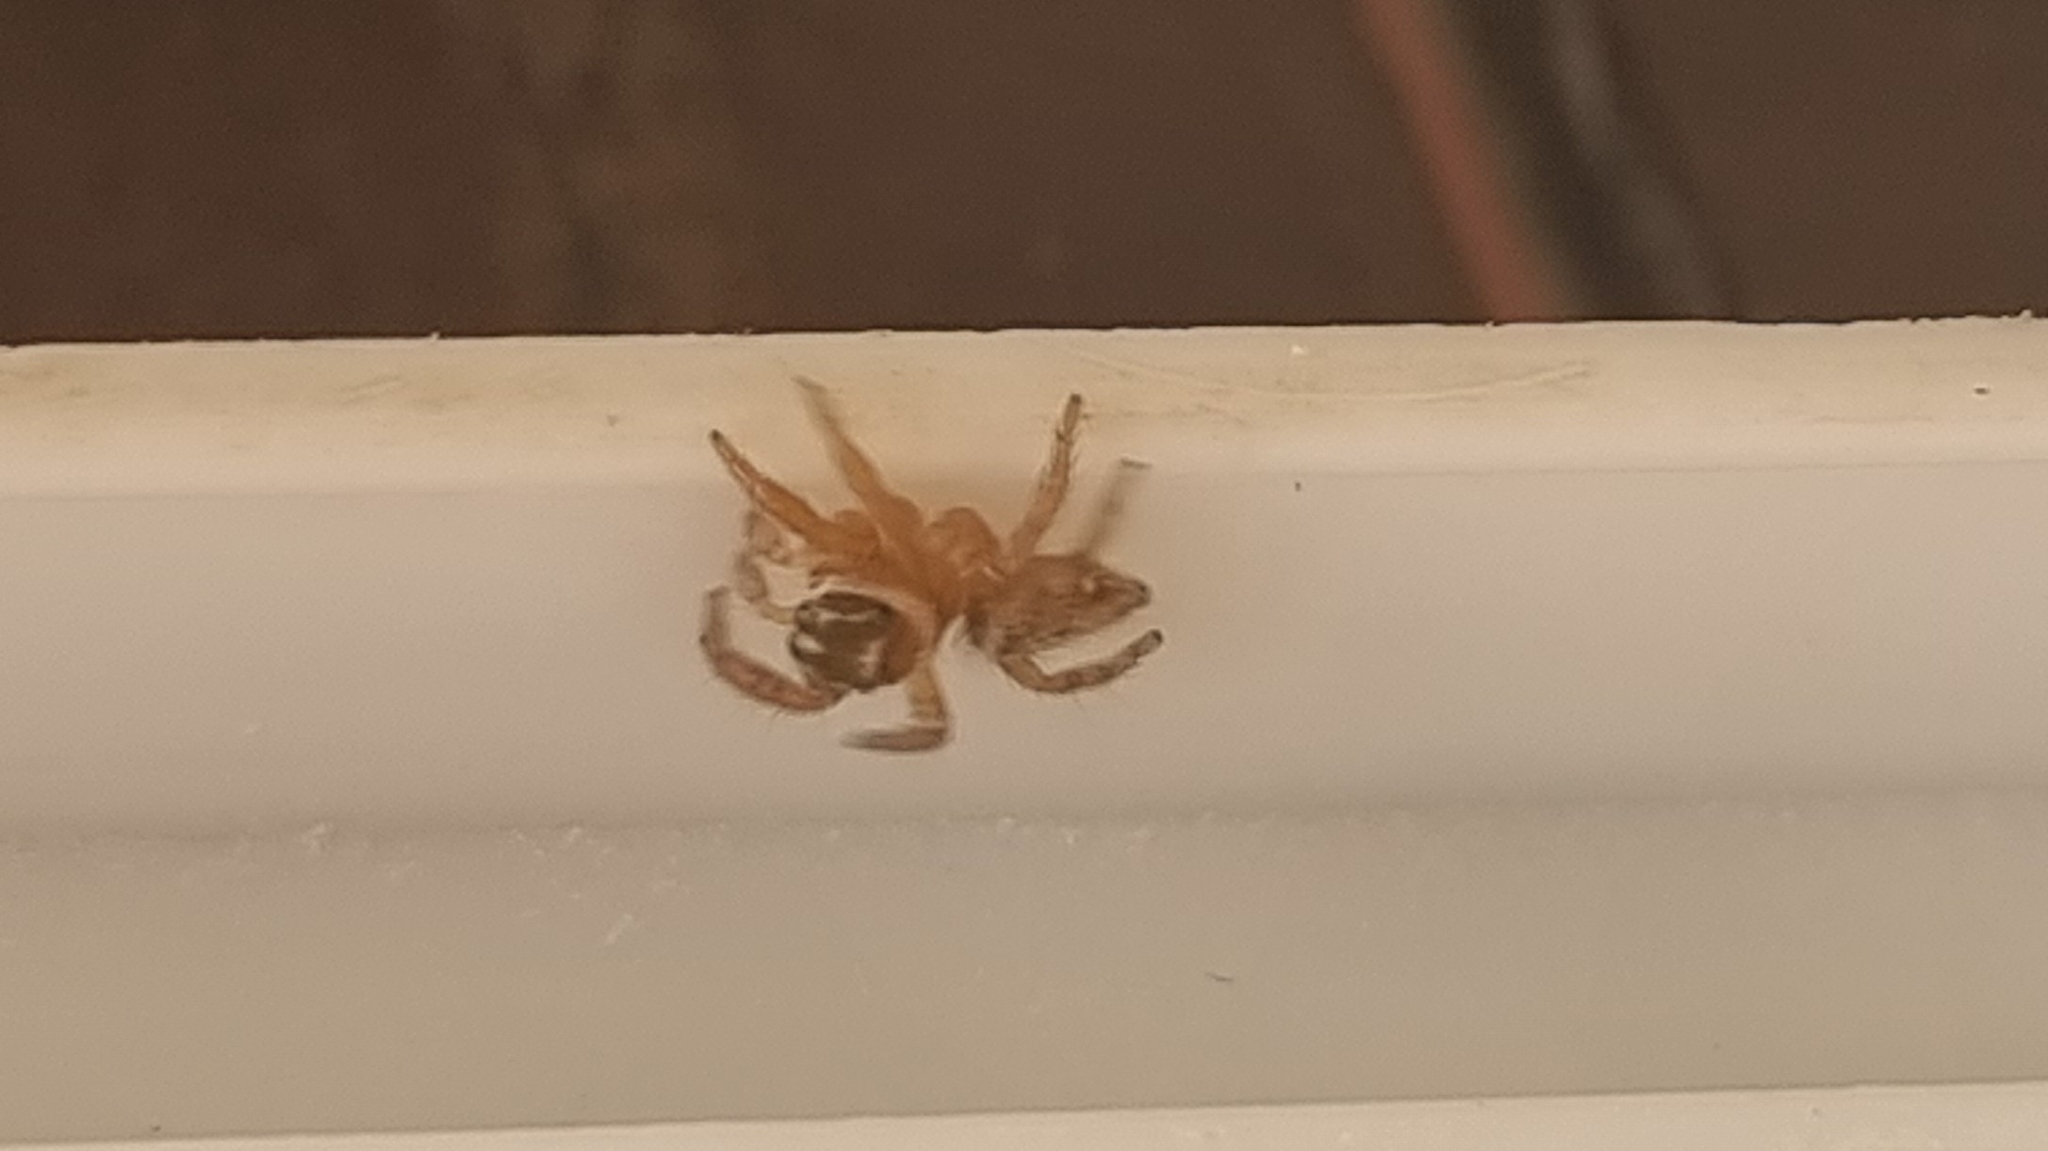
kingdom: Animalia
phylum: Arthropoda
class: Arachnida
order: Araneae
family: Salticidae
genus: Evarcha
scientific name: Evarcha jucunda
